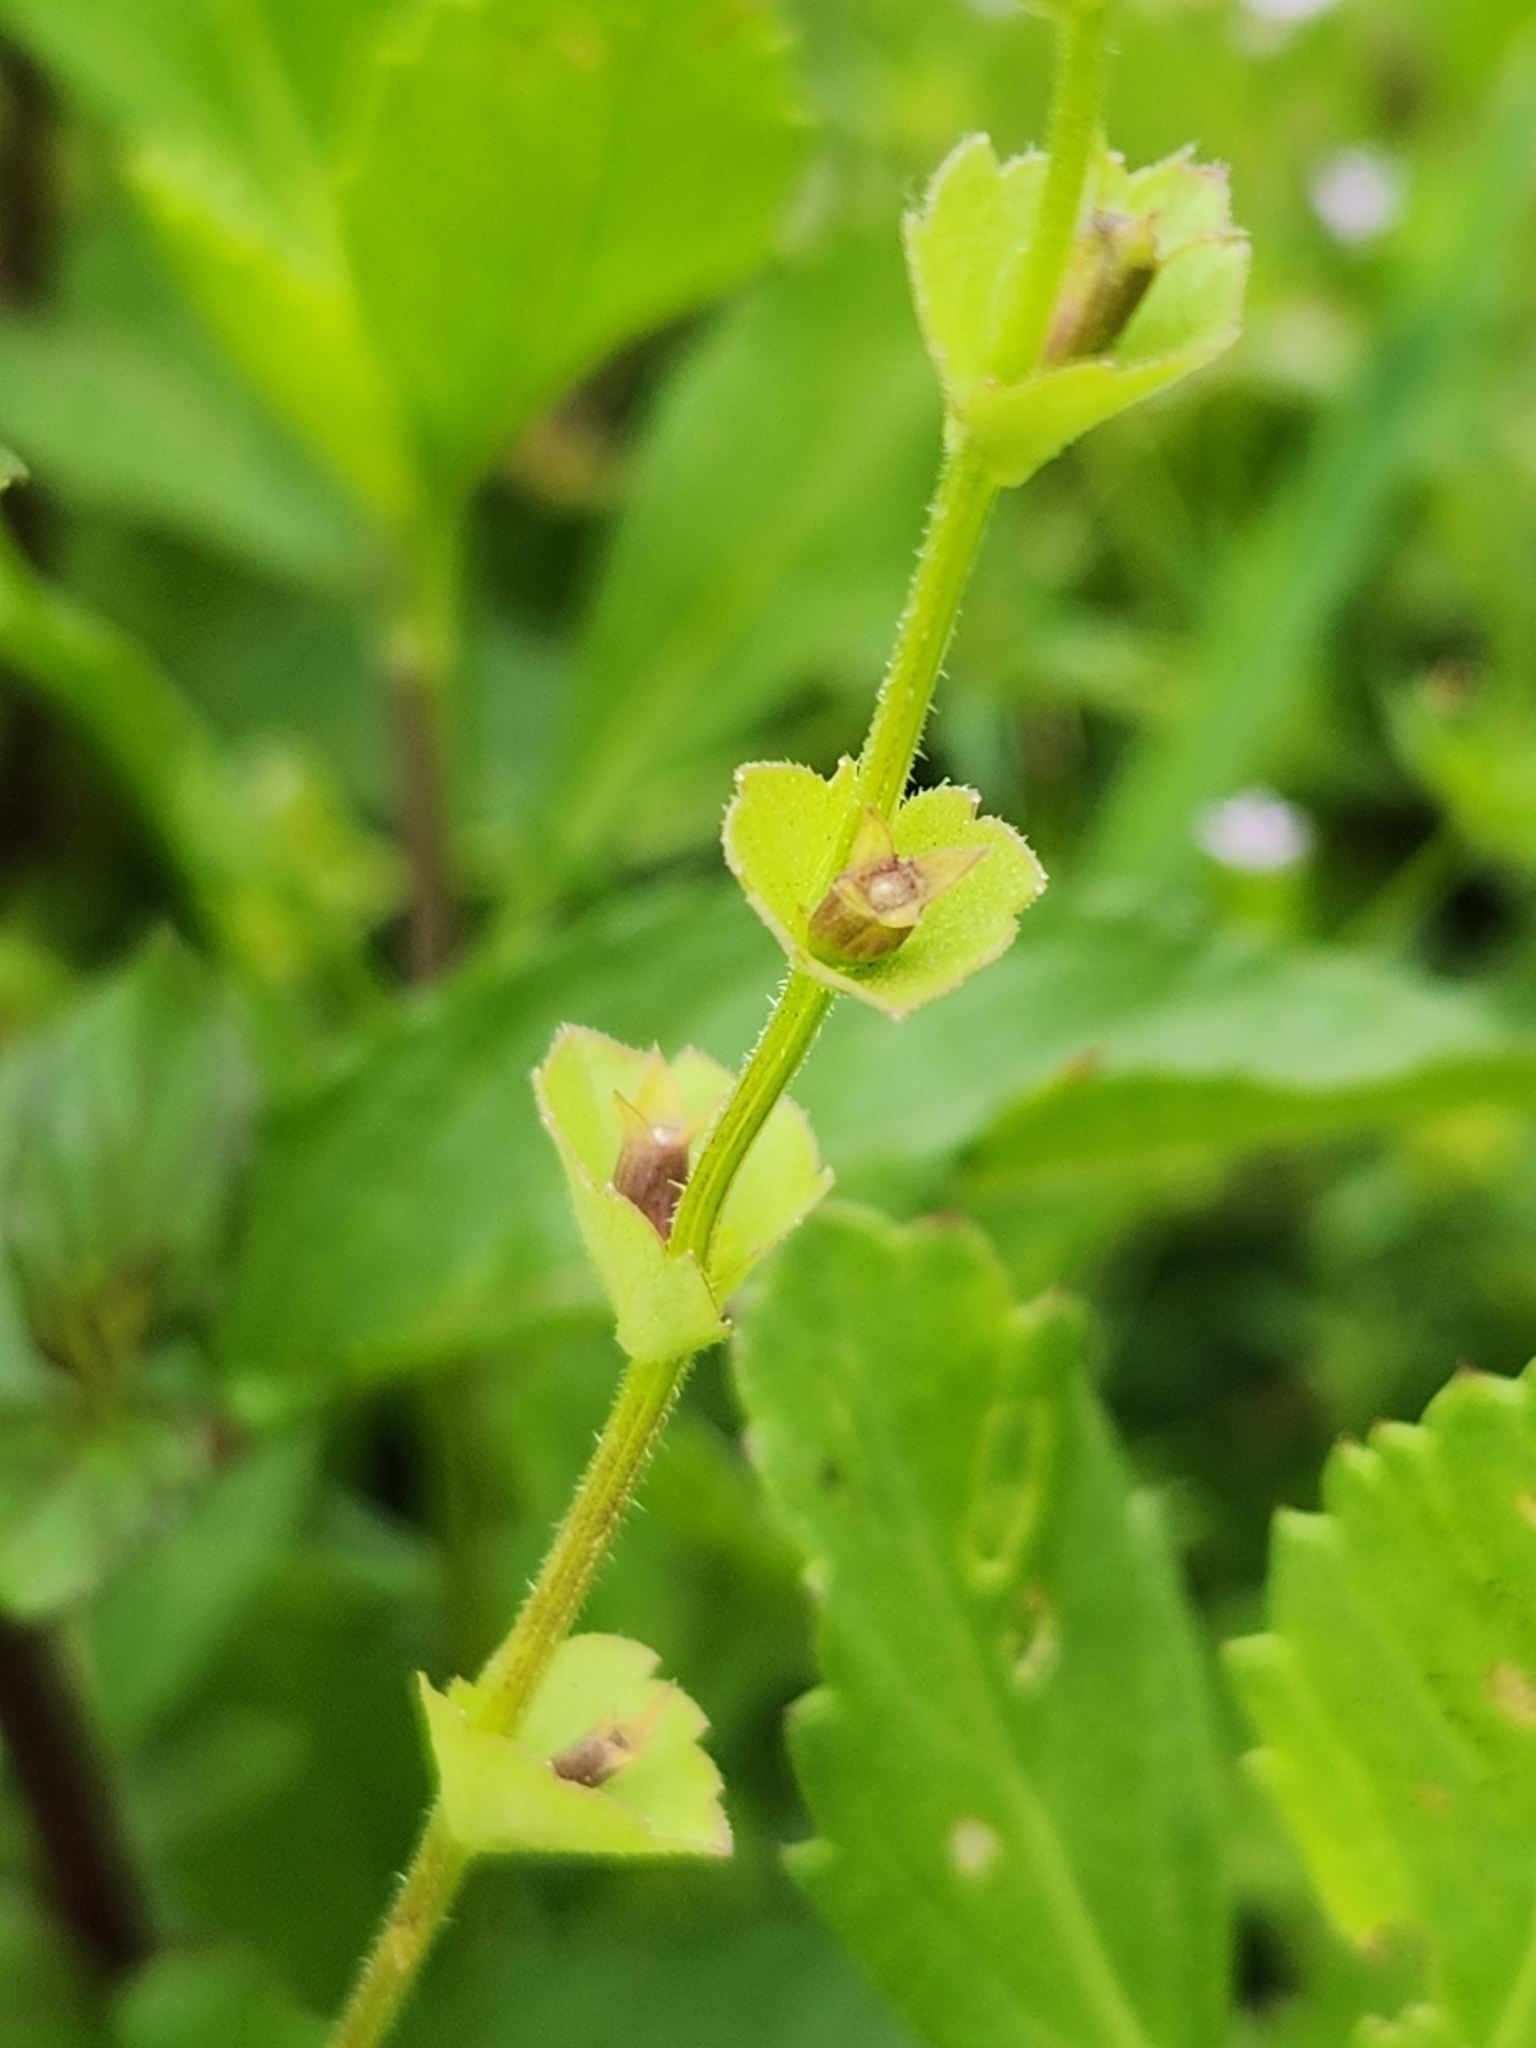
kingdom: Plantae
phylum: Tracheophyta
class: Magnoliopsida
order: Asterales
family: Campanulaceae
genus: Triodanis
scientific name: Triodanis perfoliata
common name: Clasping venus' looking-glass
